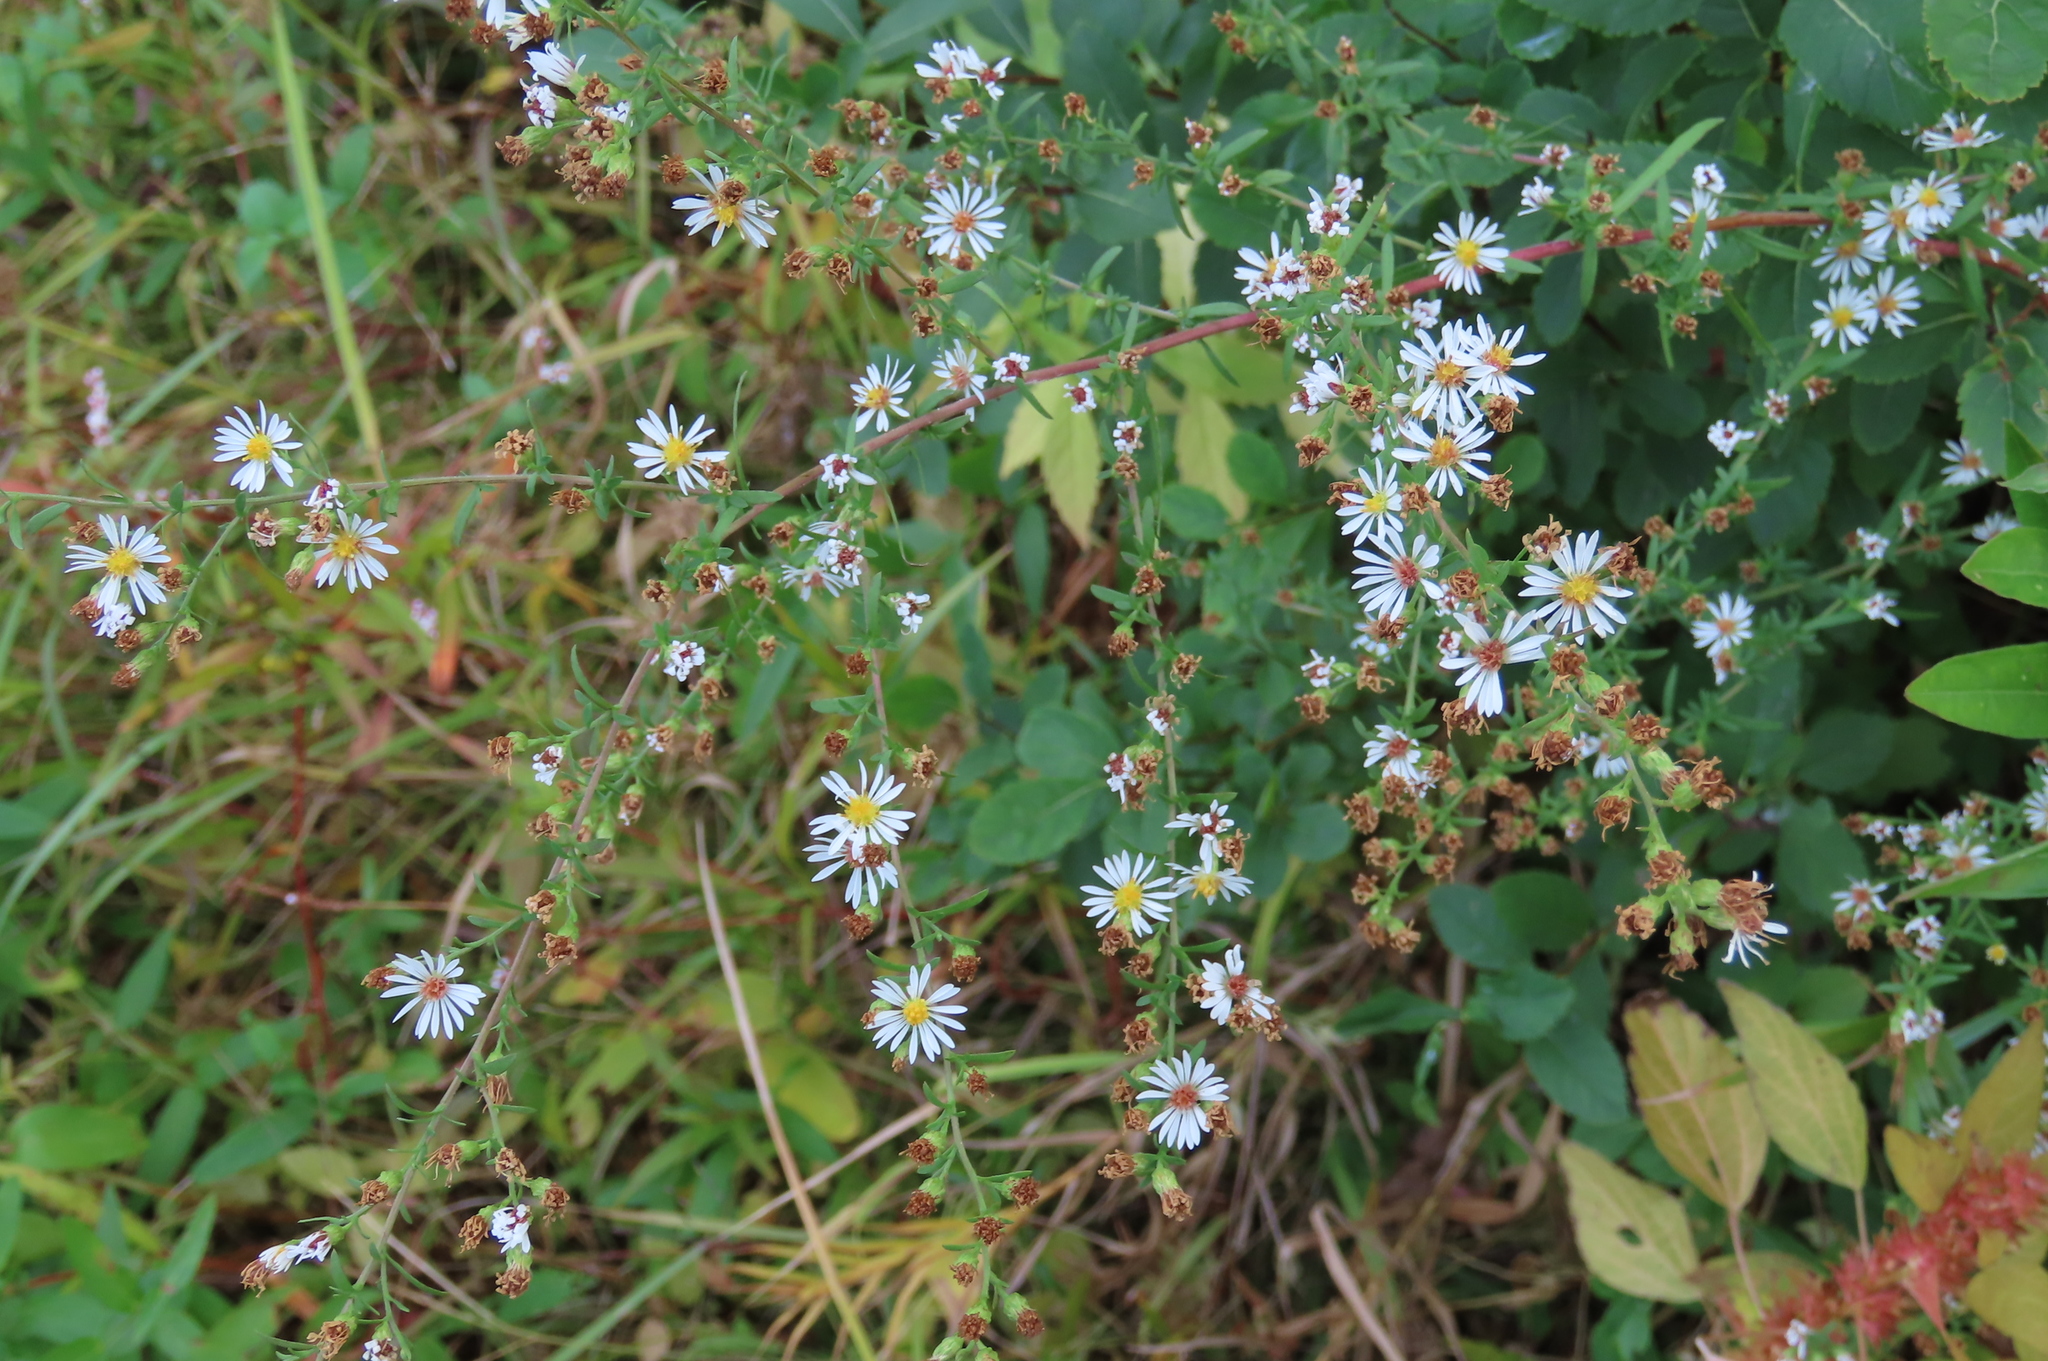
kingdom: Plantae
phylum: Tracheophyta
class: Magnoliopsida
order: Asterales
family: Asteraceae
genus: Symphyotrichum
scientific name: Symphyotrichum racemosum
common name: Small white aster
